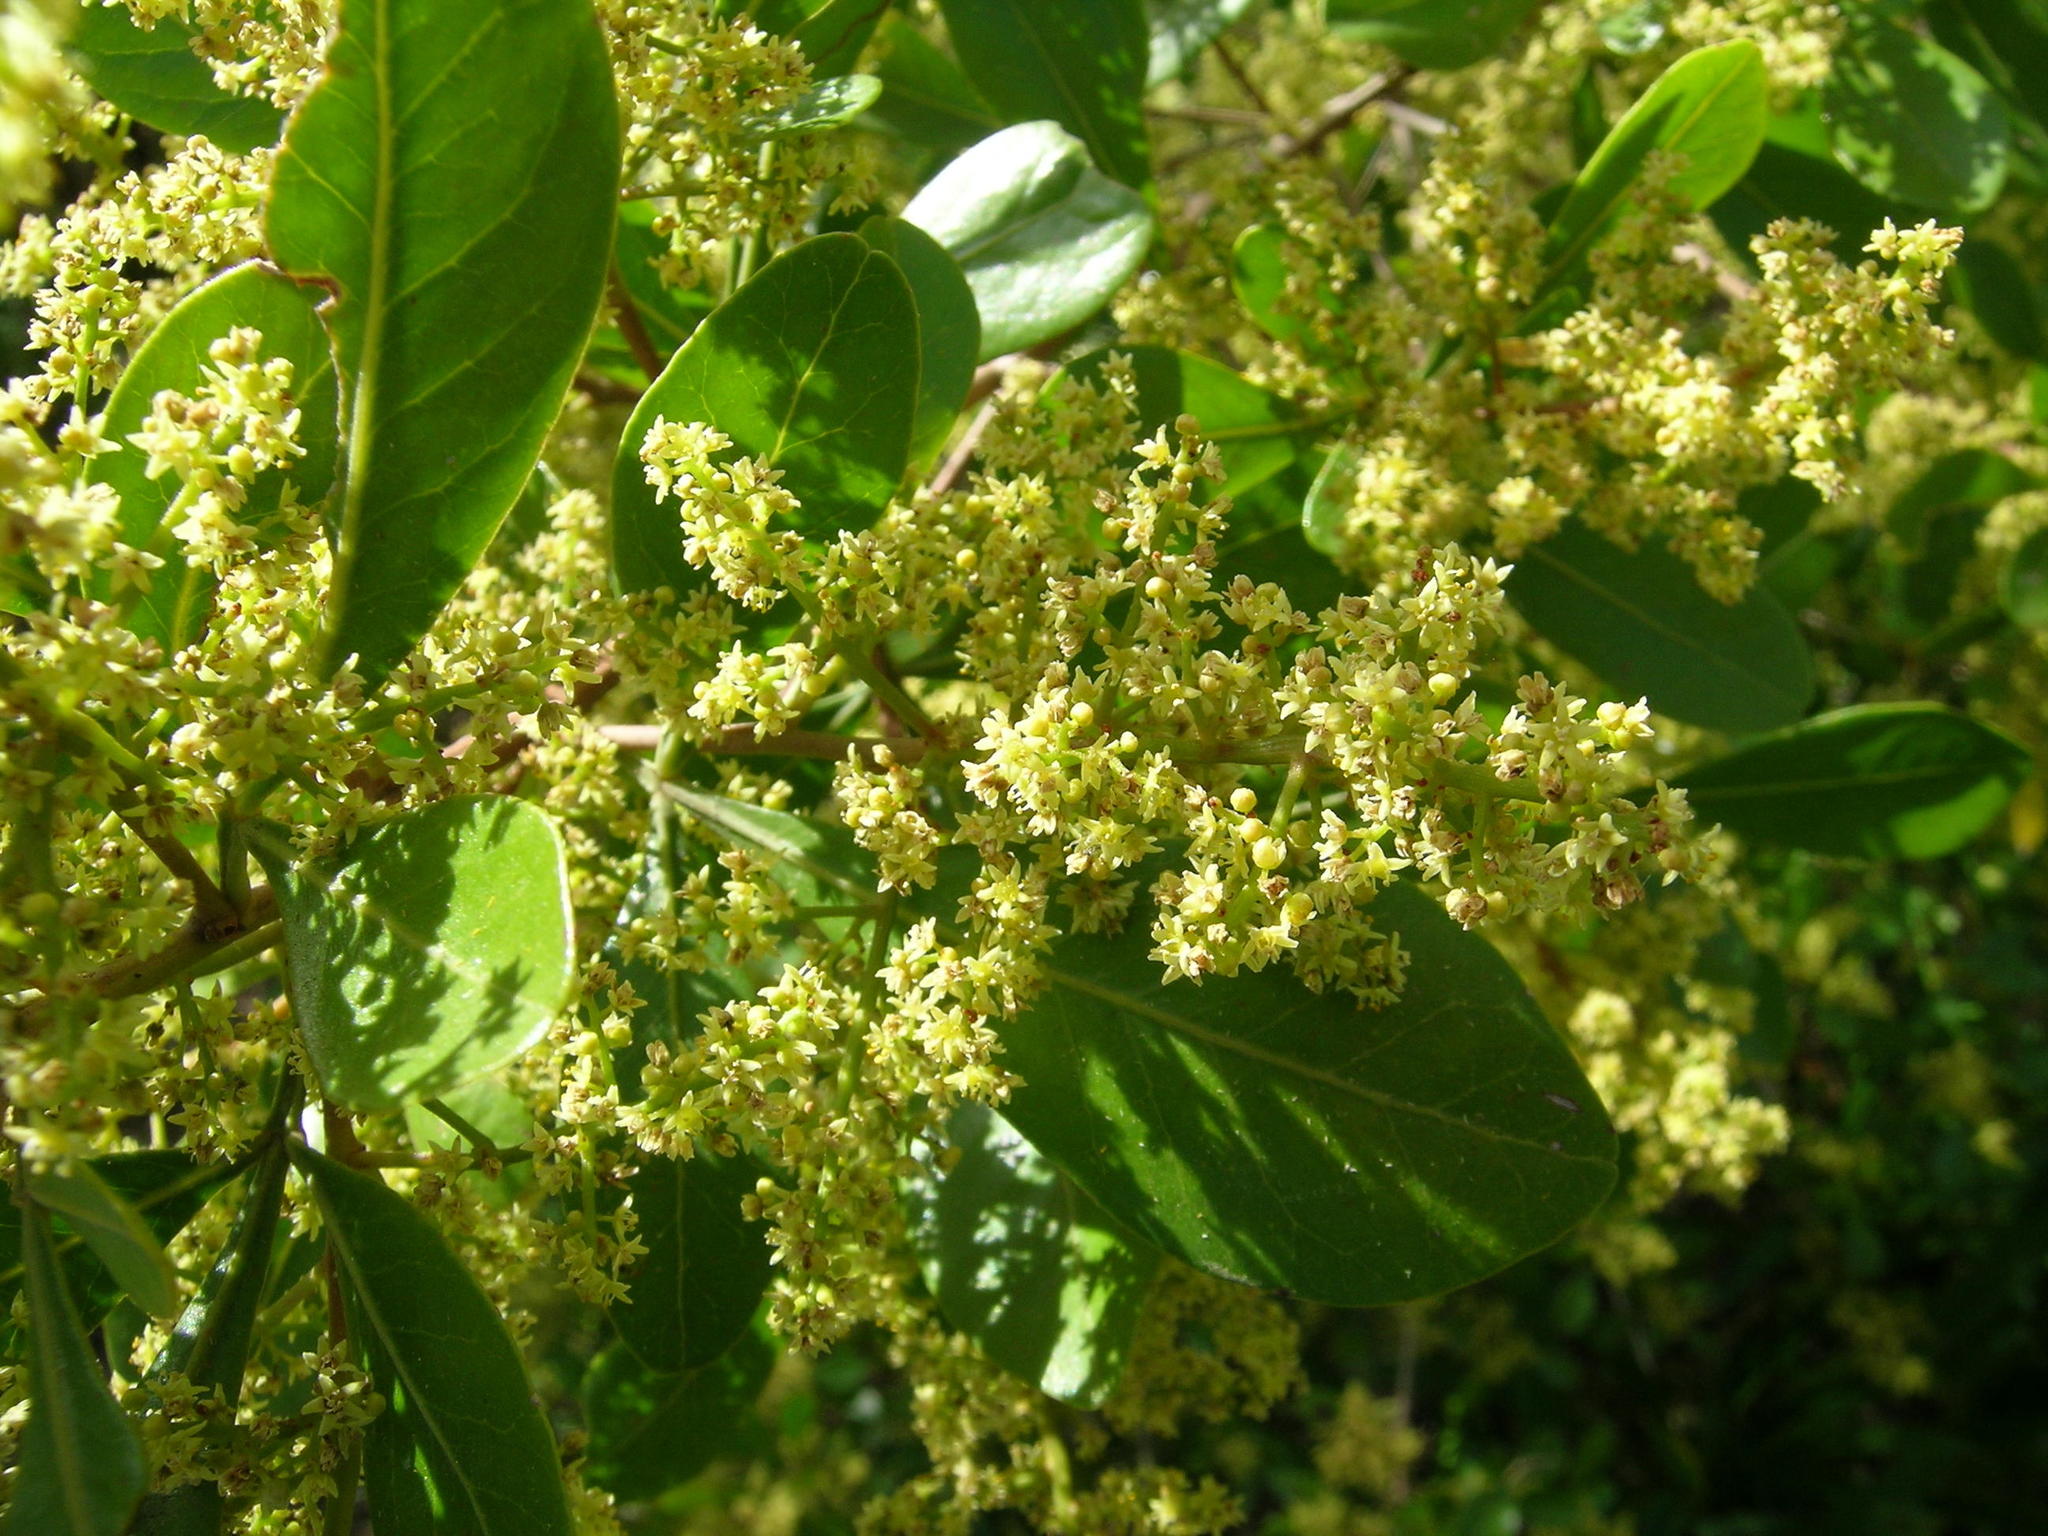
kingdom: Plantae
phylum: Tracheophyta
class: Magnoliopsida
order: Sapindales
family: Anacardiaceae
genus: Searsia
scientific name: Searsia lucida
